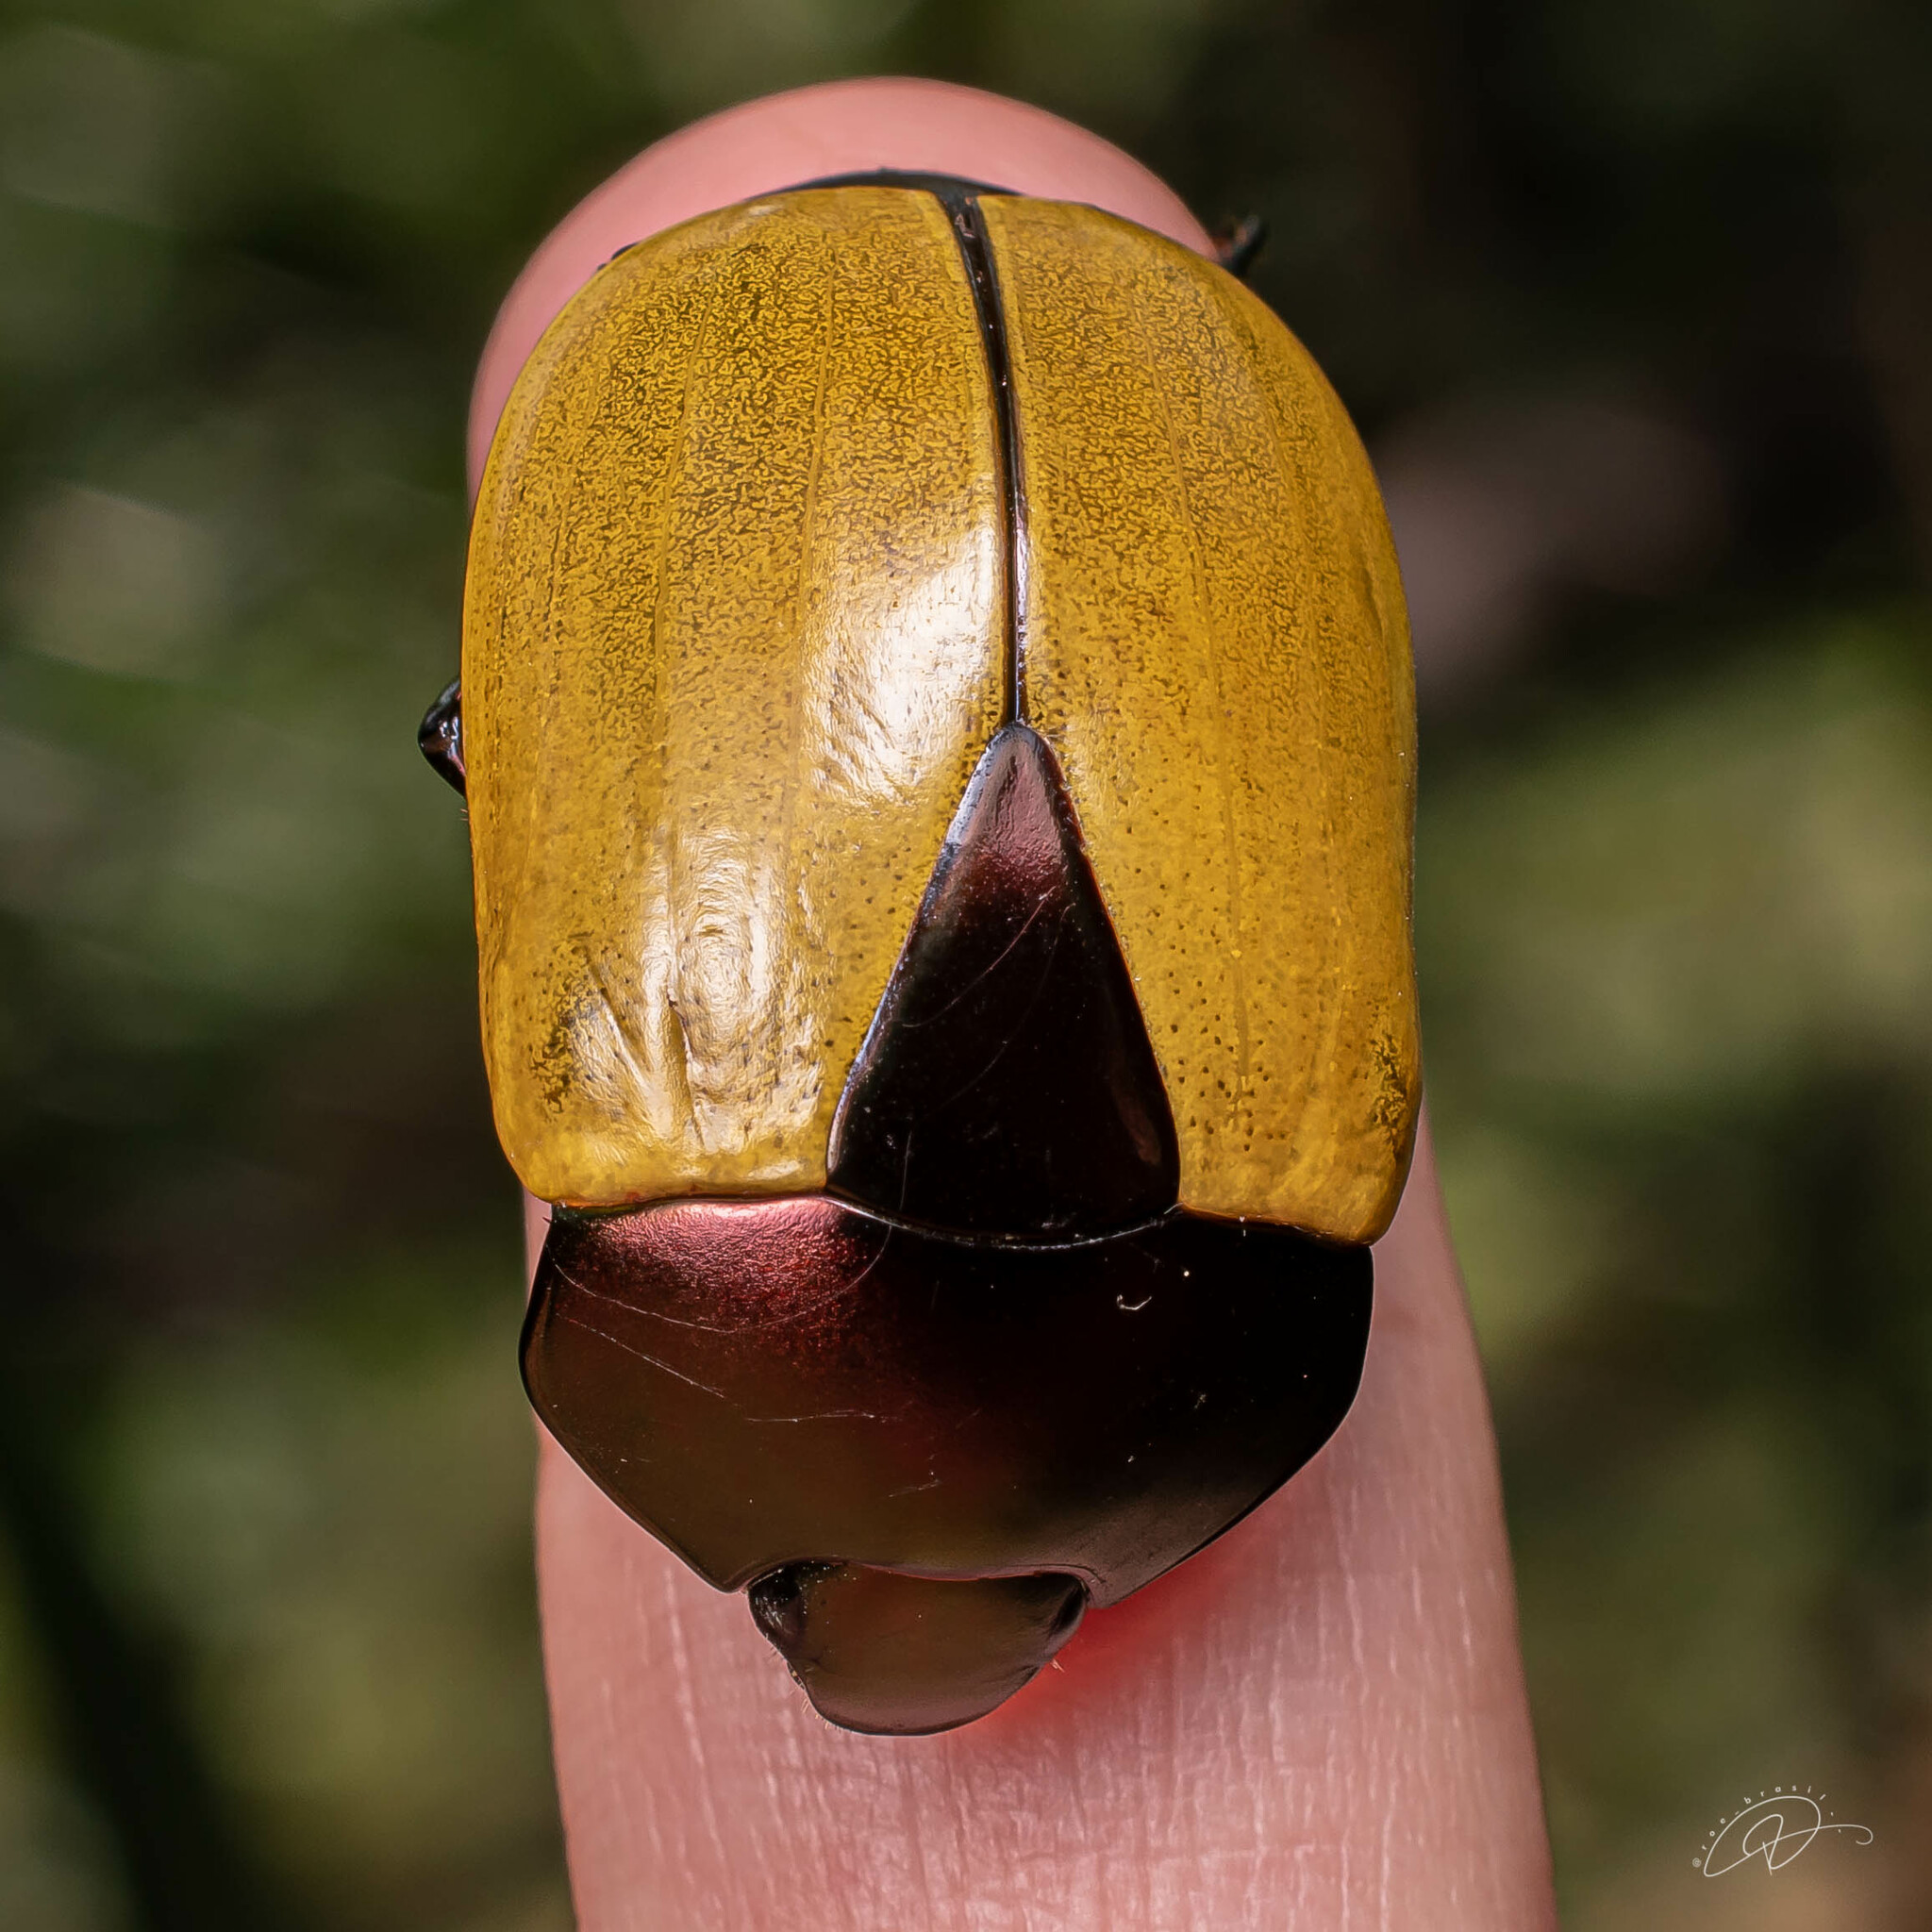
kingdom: Animalia
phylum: Arthropoda
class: Insecta
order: Coleoptera
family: Scarabaeidae
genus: Macraspis
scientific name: Macraspis clavata
